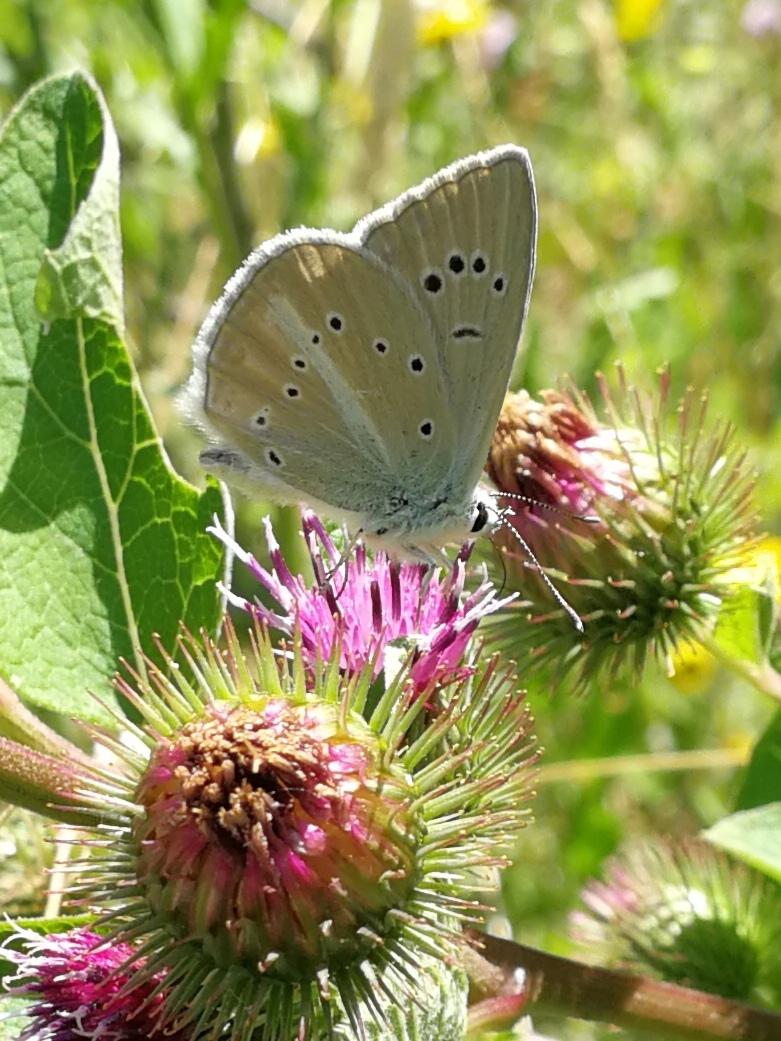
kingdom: Animalia
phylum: Arthropoda
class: Insecta
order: Lepidoptera
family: Lycaenidae
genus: Agrodiaetus
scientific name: Agrodiaetus dolus
